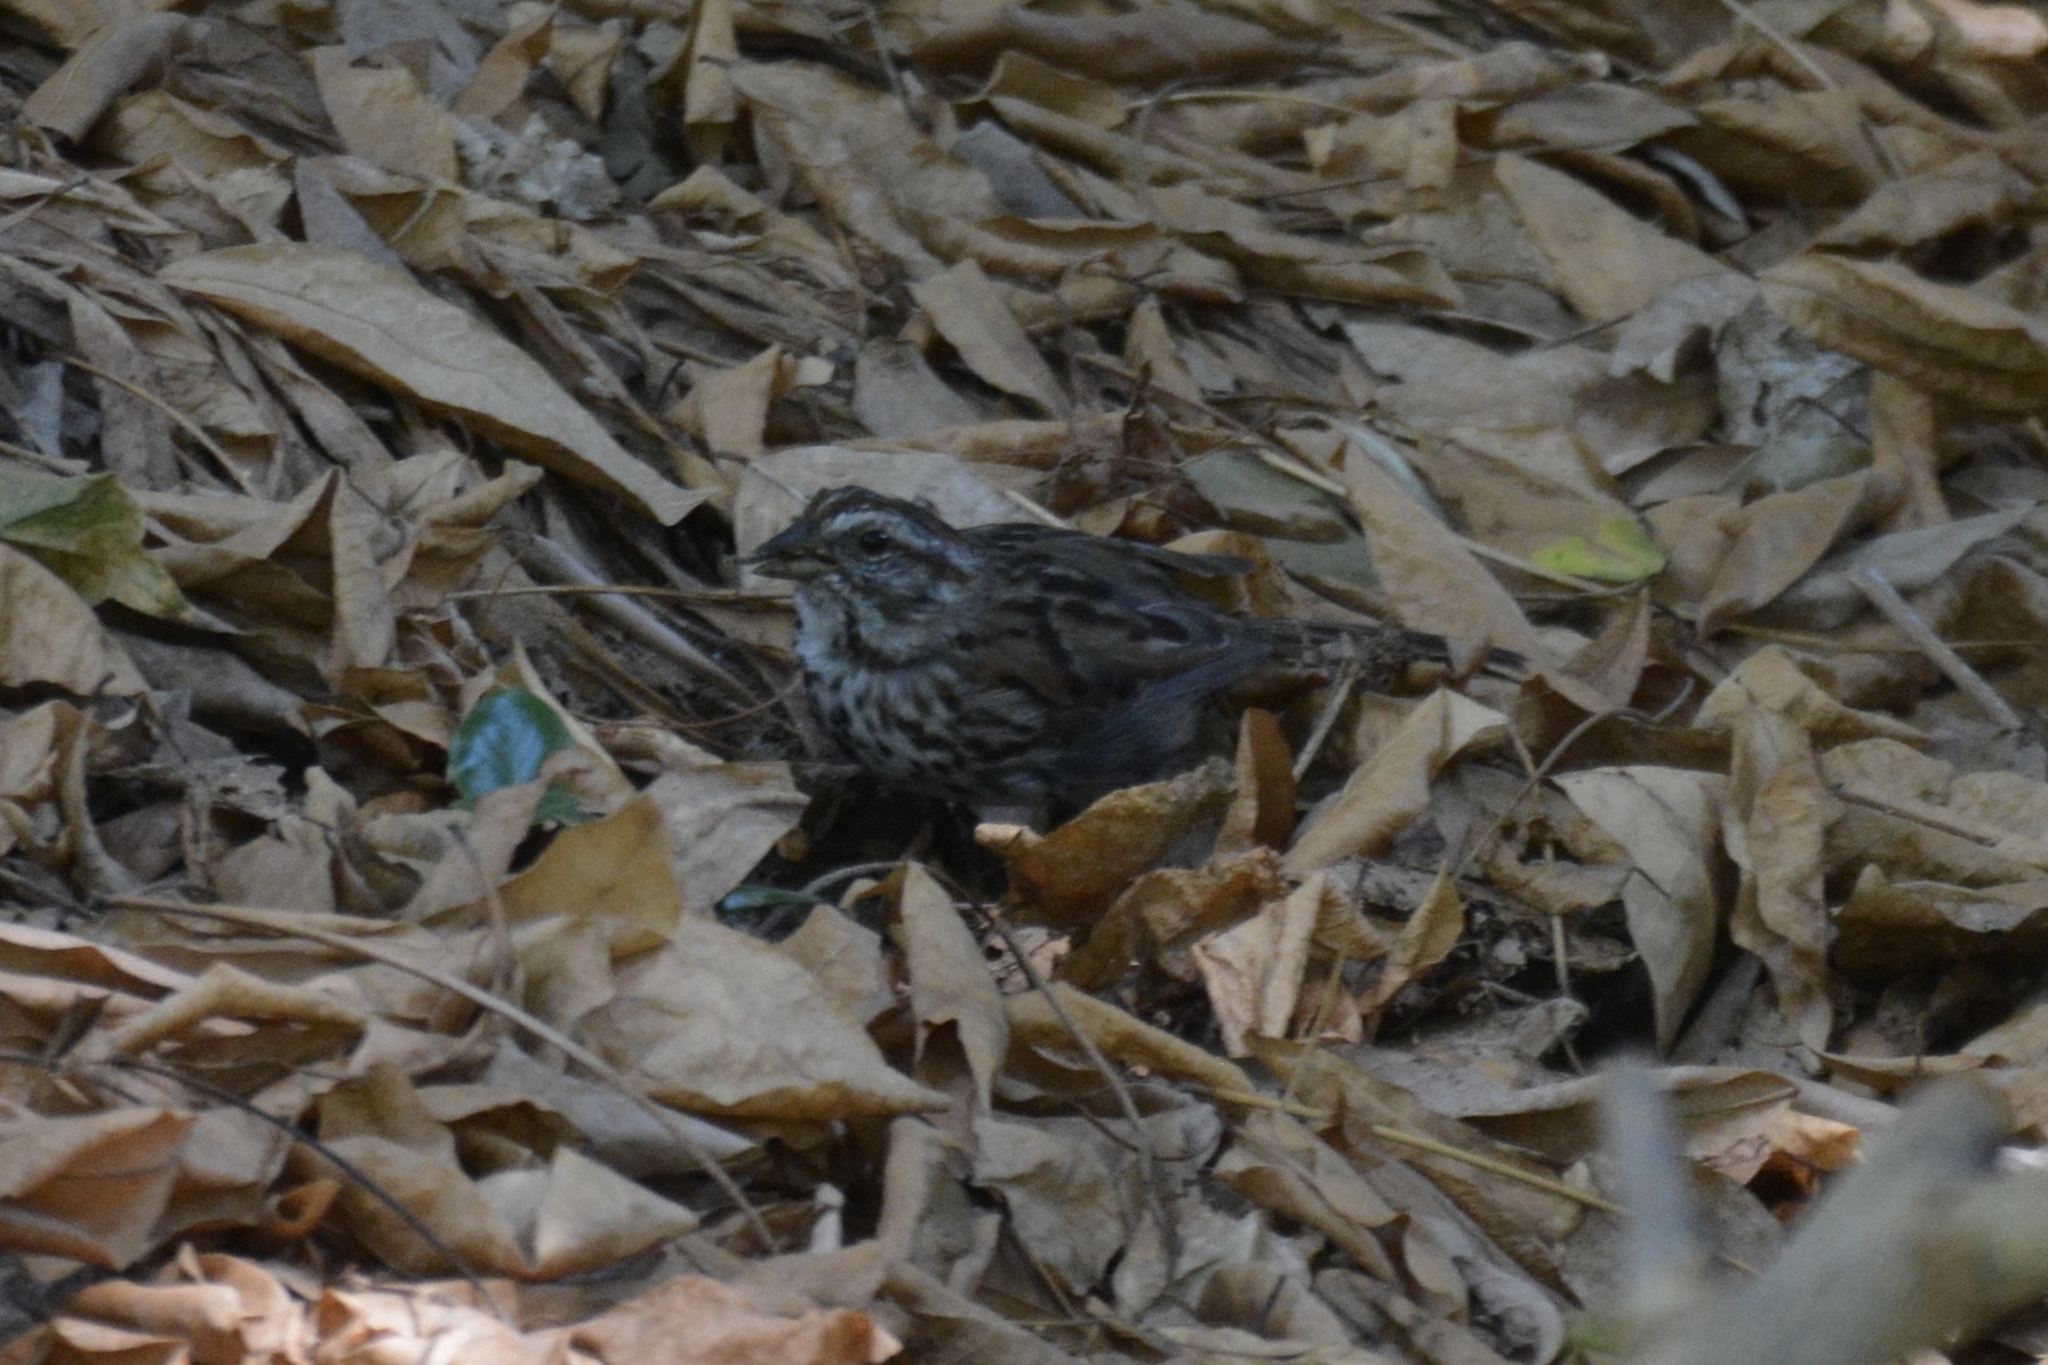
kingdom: Animalia
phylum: Chordata
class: Aves
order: Passeriformes
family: Passerellidae
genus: Melospiza
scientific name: Melospiza melodia
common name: Song sparrow
